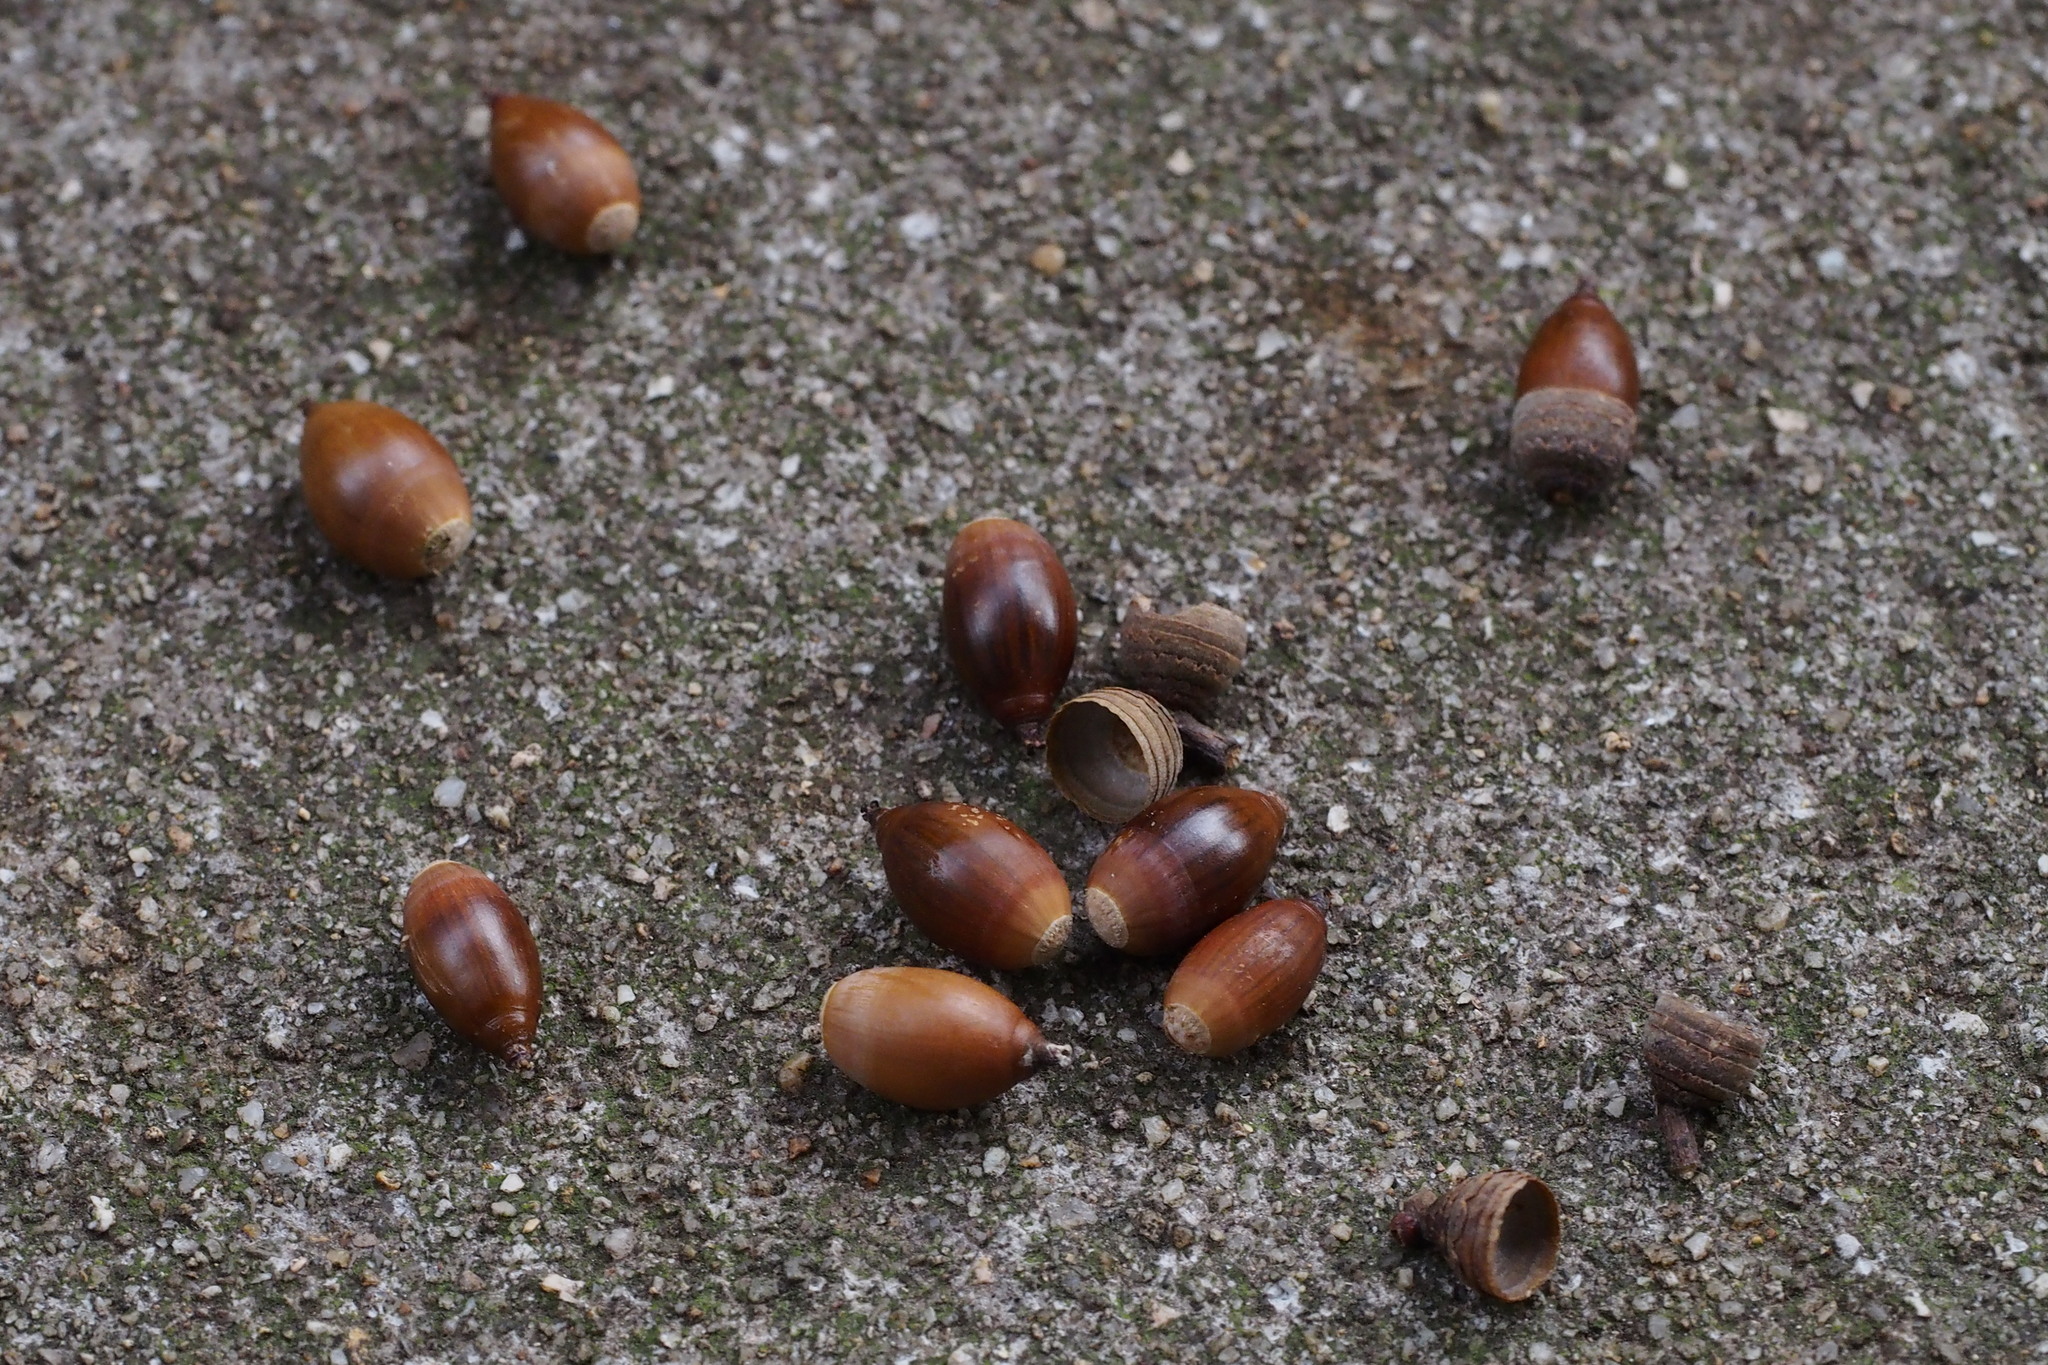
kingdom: Plantae
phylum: Tracheophyta
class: Magnoliopsida
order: Fagales
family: Fagaceae
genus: Quercus
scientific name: Quercus glauca
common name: Ring-cup oak
